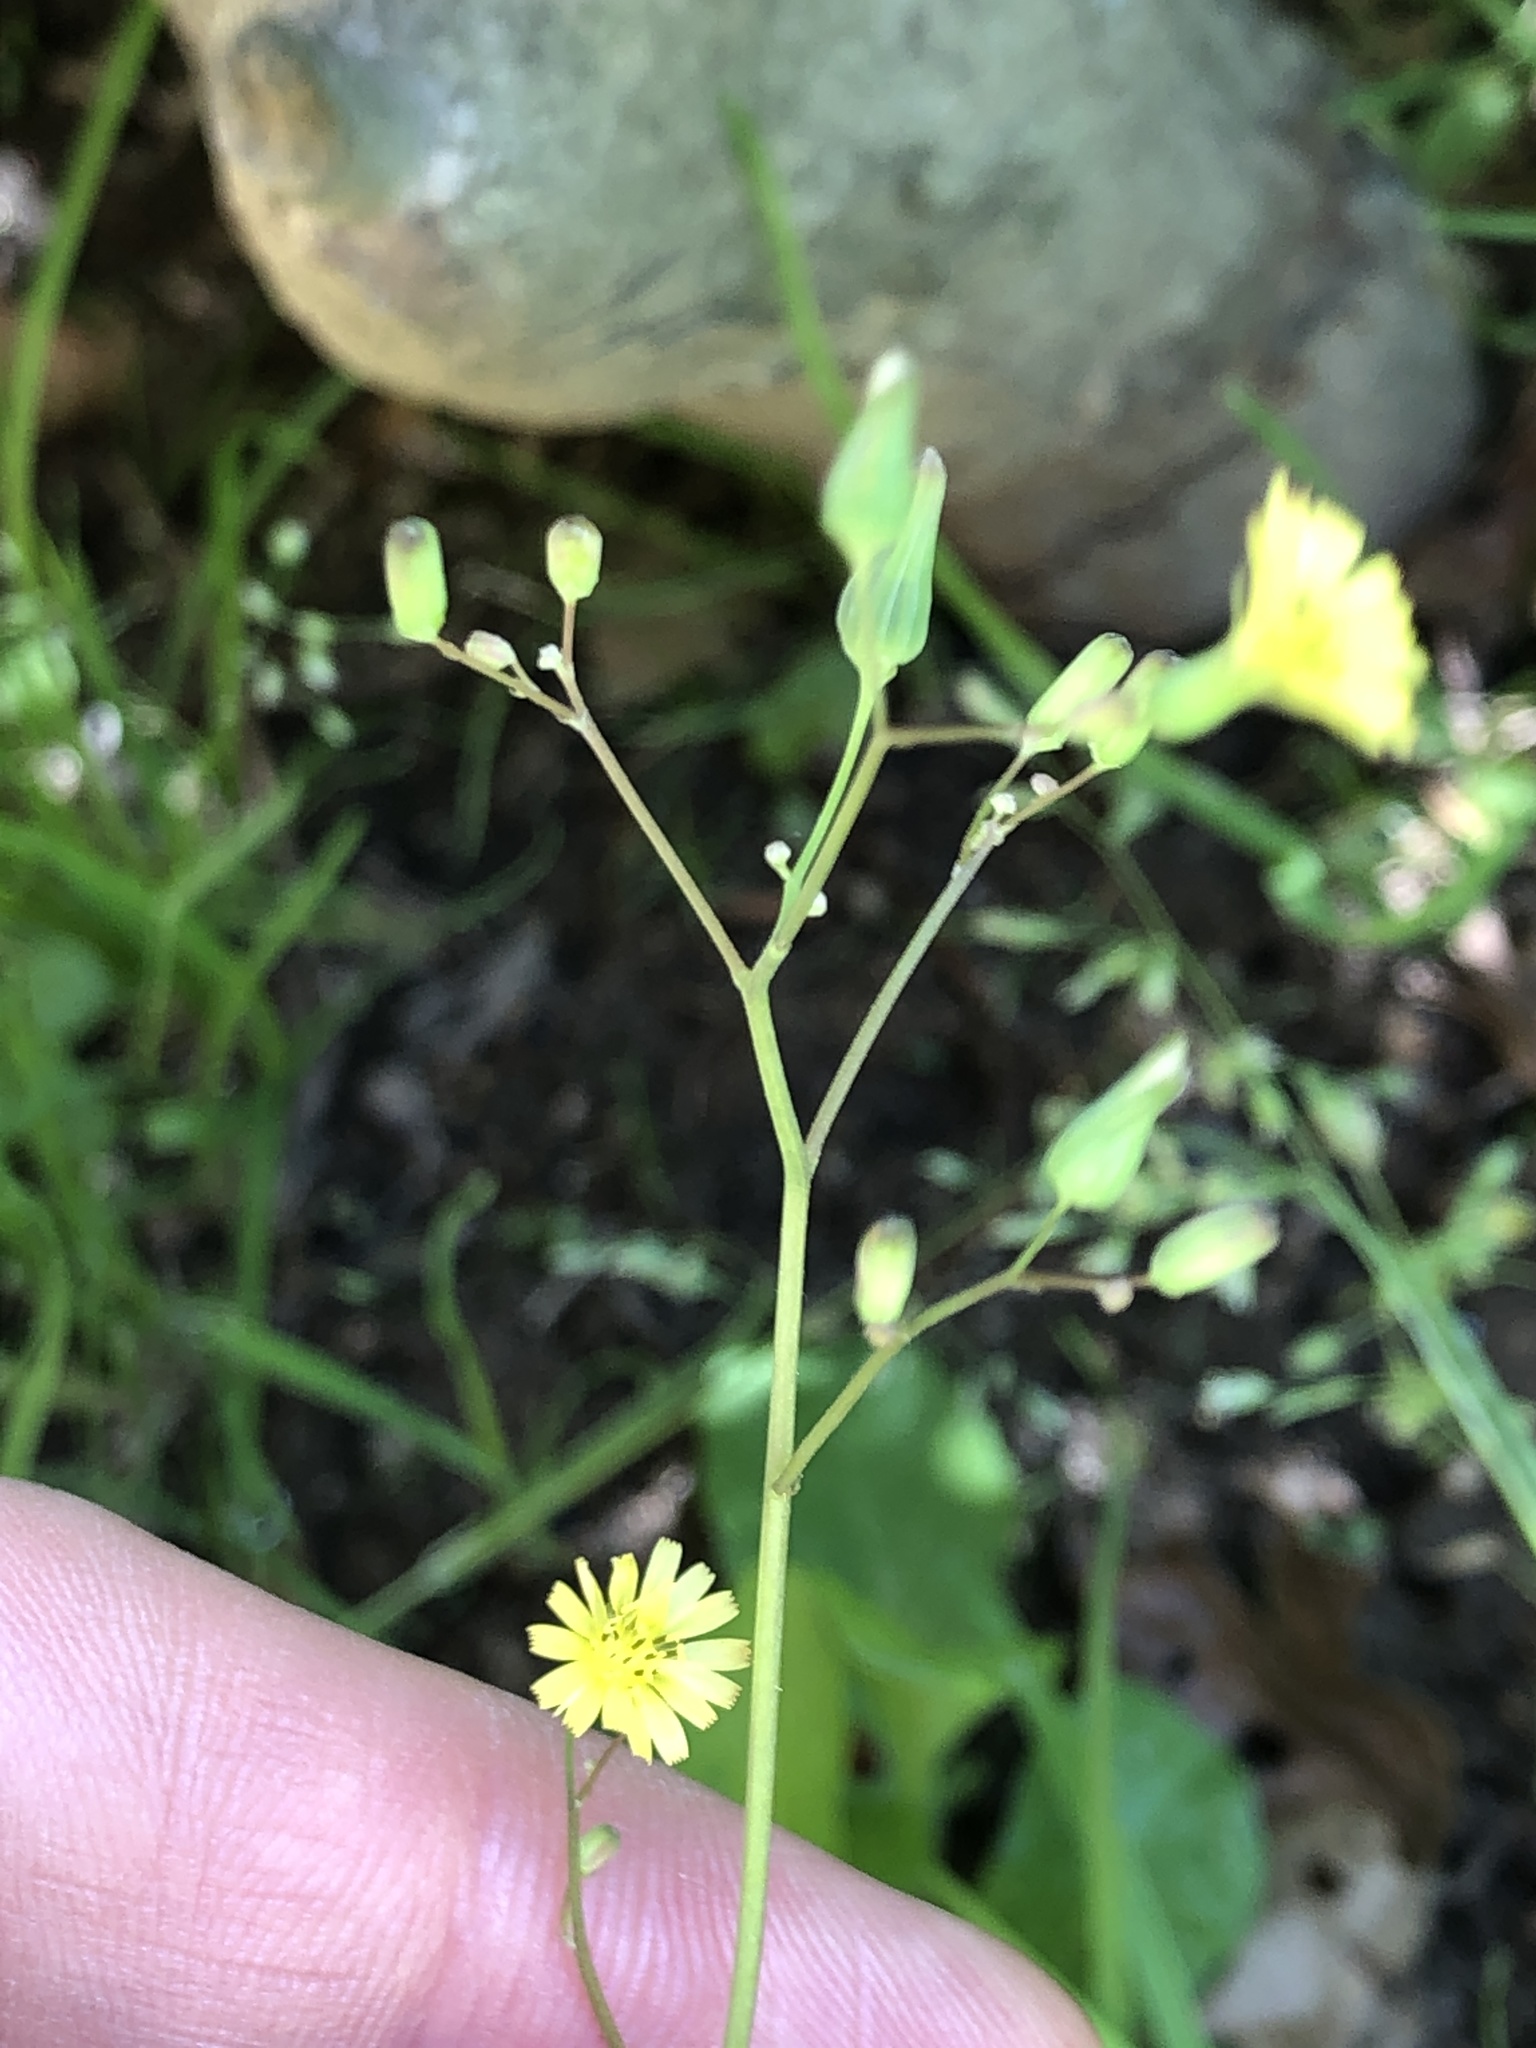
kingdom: Plantae
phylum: Tracheophyta
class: Magnoliopsida
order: Asterales
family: Asteraceae
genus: Youngia
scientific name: Youngia japonica
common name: Oriental false hawksbeard
